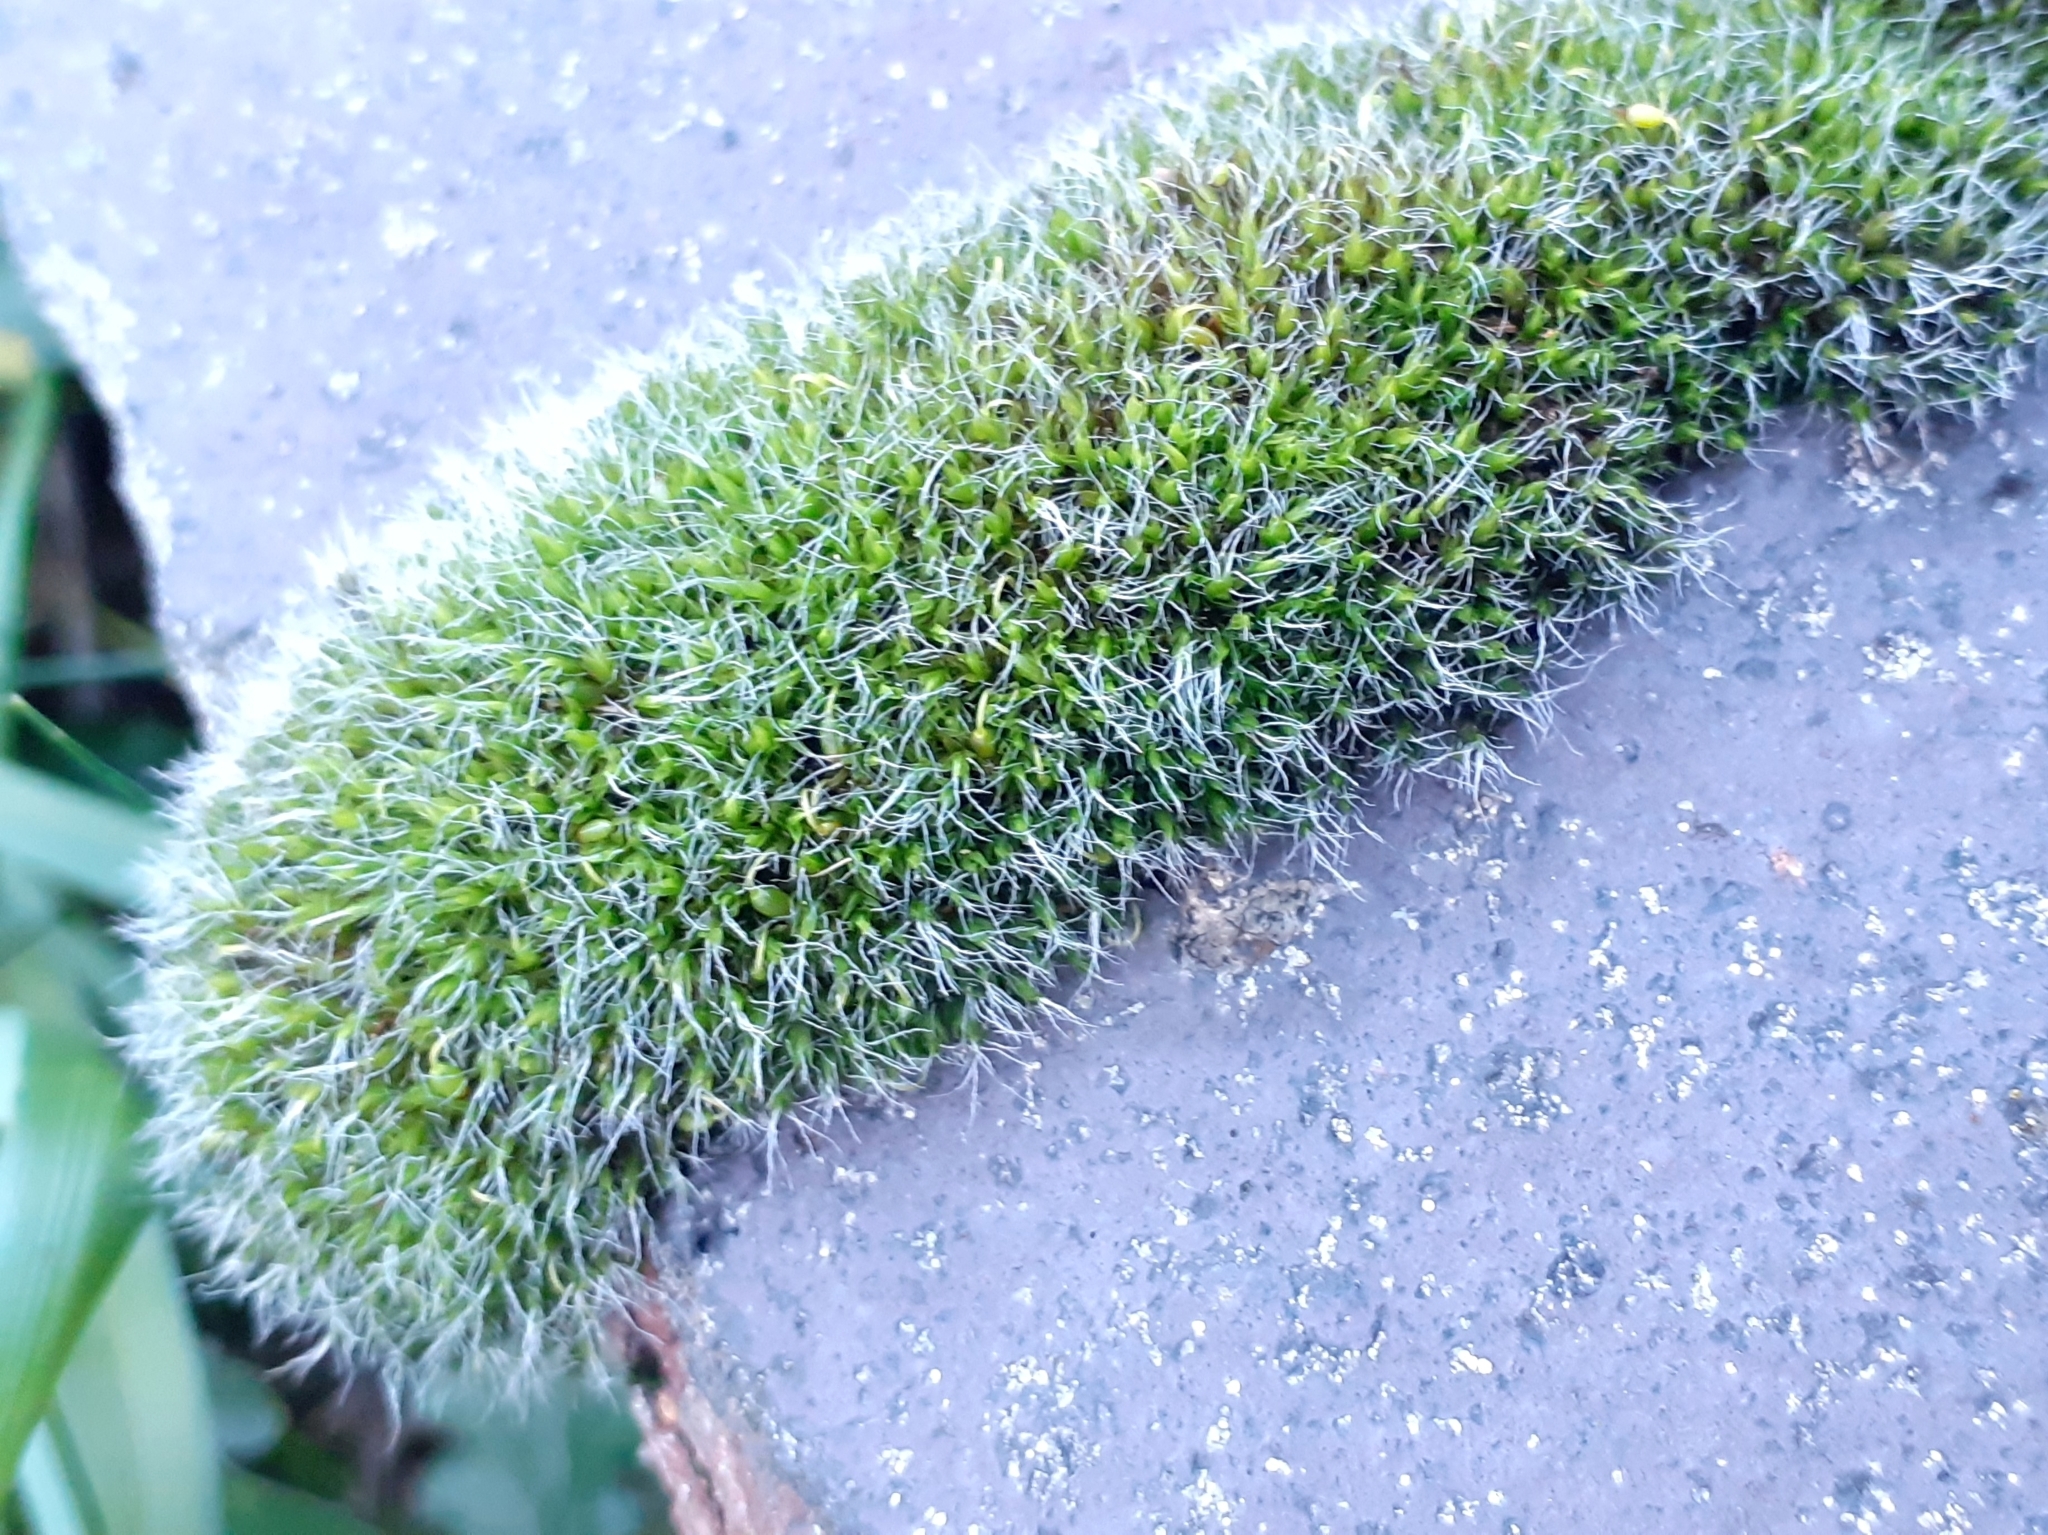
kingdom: Plantae
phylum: Bryophyta
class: Bryopsida
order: Grimmiales
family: Grimmiaceae
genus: Grimmia
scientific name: Grimmia pulvinata
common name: Grey-cushioned grimmia
